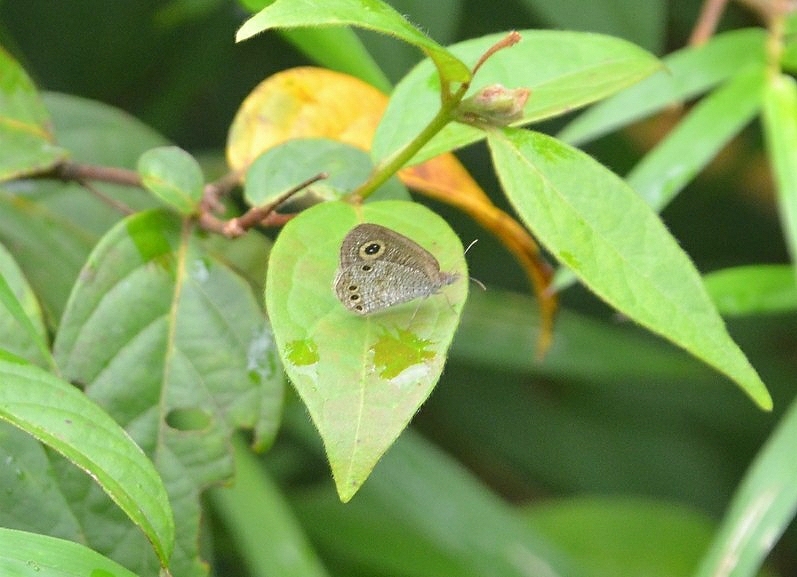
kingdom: Animalia
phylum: Arthropoda
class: Insecta
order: Lepidoptera
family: Nymphalidae
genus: Ypthima
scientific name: Ypthima huebneri
